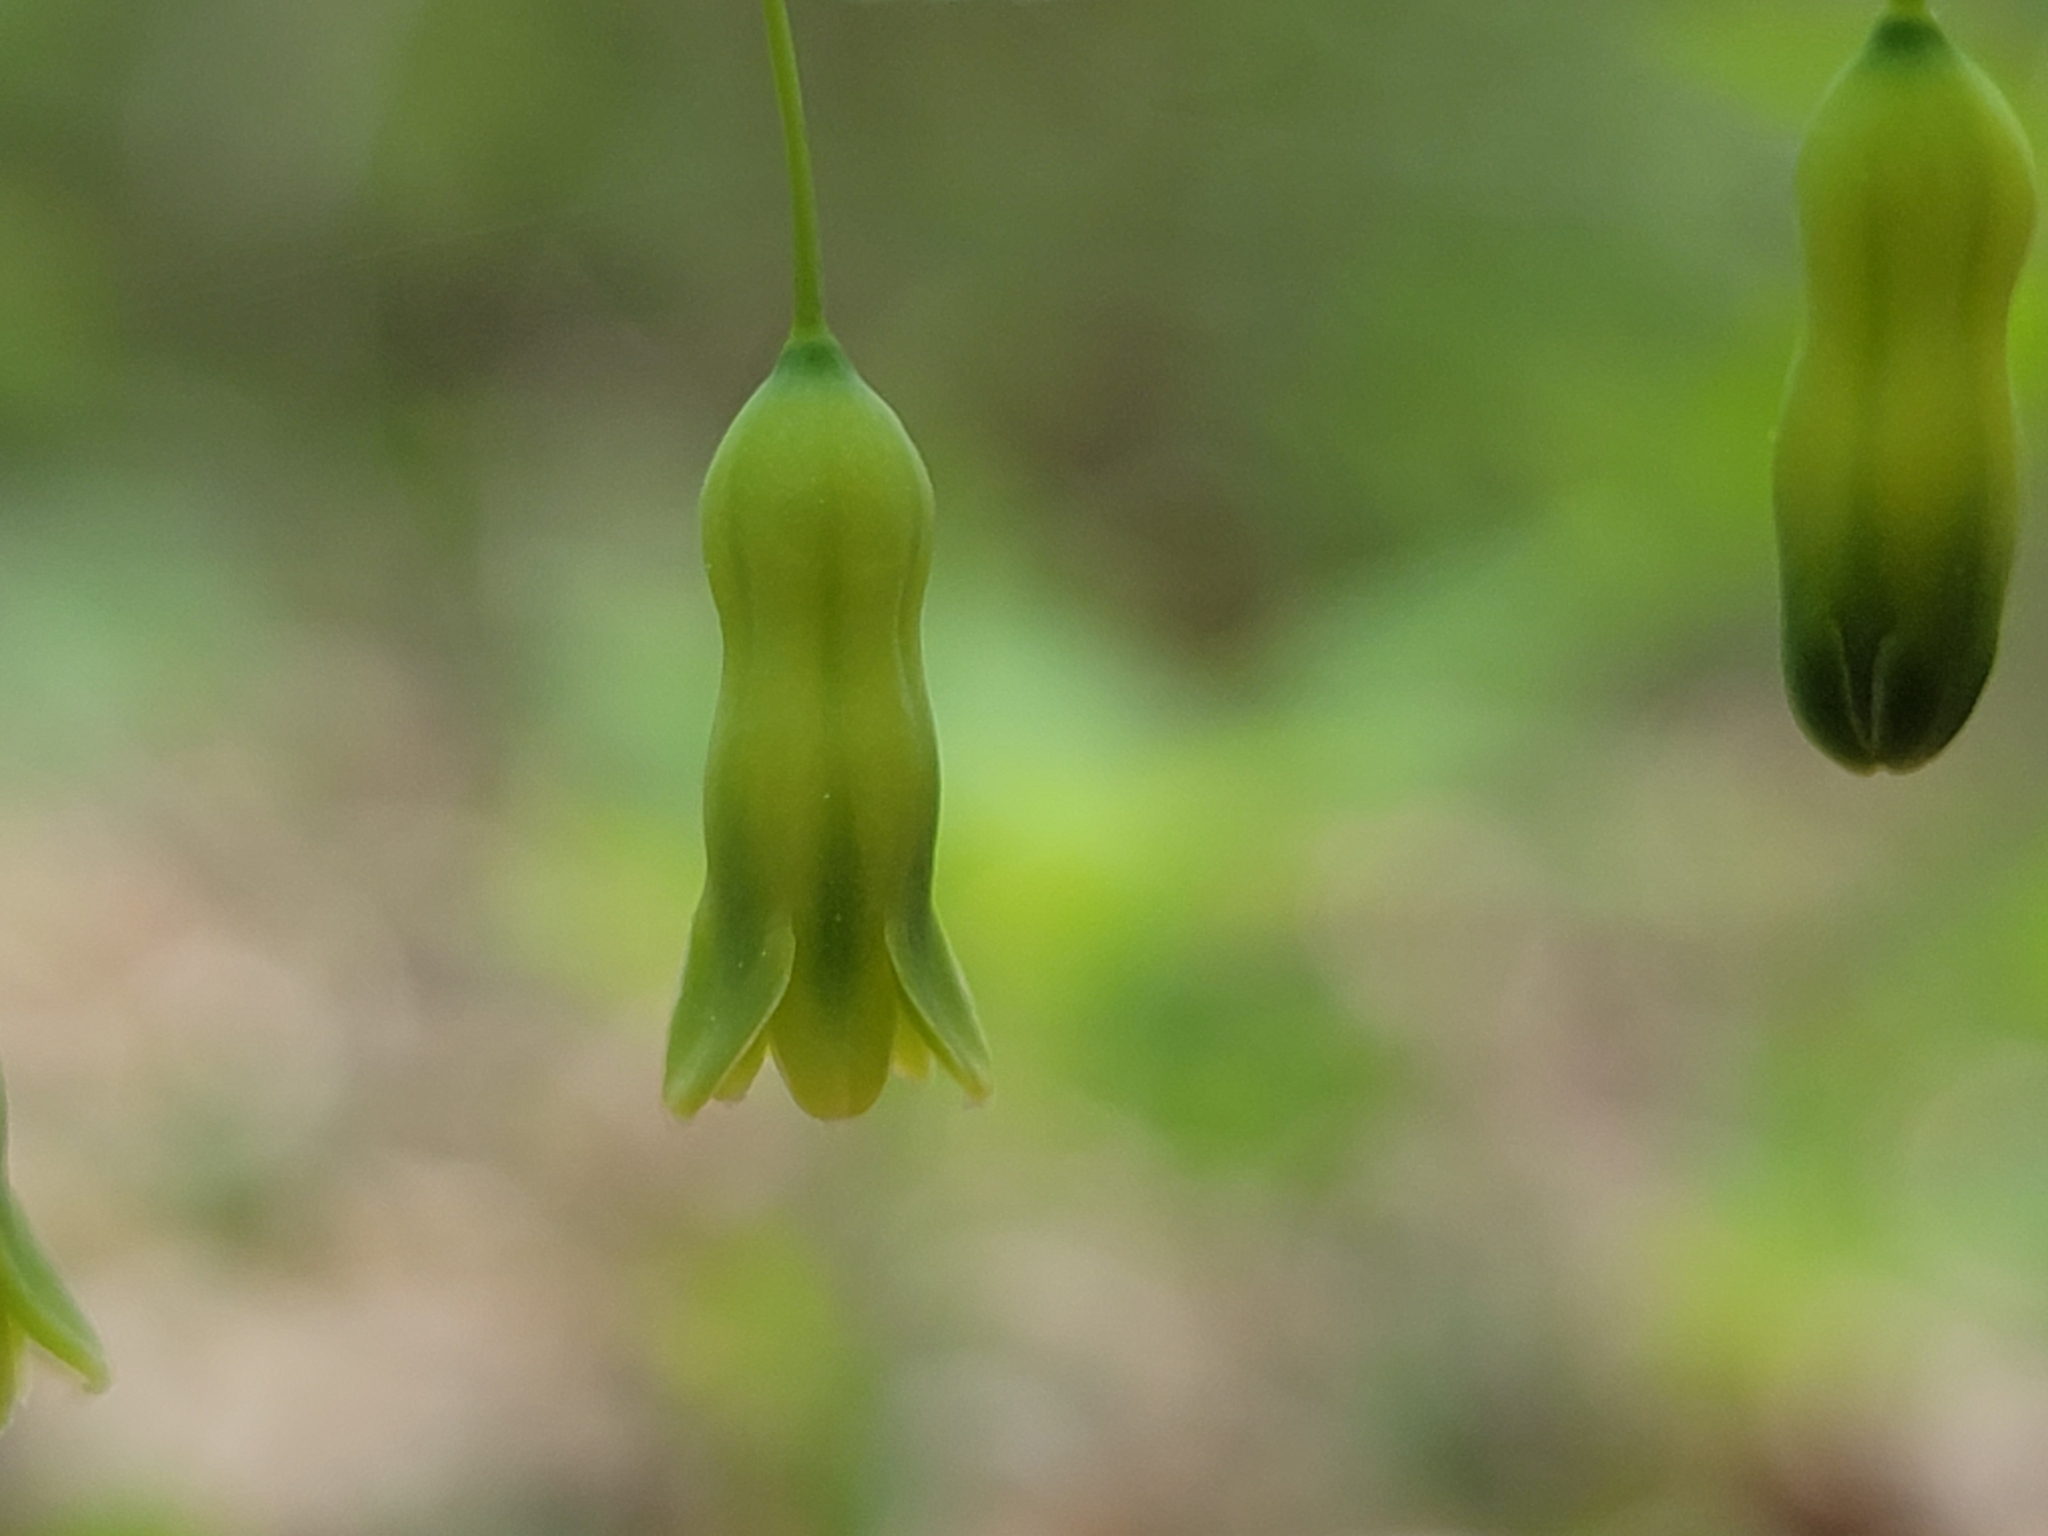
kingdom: Plantae
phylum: Tracheophyta
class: Liliopsida
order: Asparagales
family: Asparagaceae
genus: Polygonatum
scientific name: Polygonatum pubescens
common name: Downy solomon's seal
